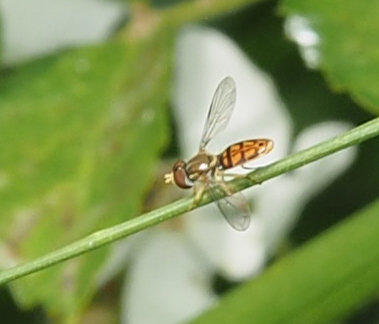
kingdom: Animalia
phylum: Arthropoda
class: Insecta
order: Diptera
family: Syrphidae
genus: Toxomerus
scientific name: Toxomerus marginatus
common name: Syrphid fly
